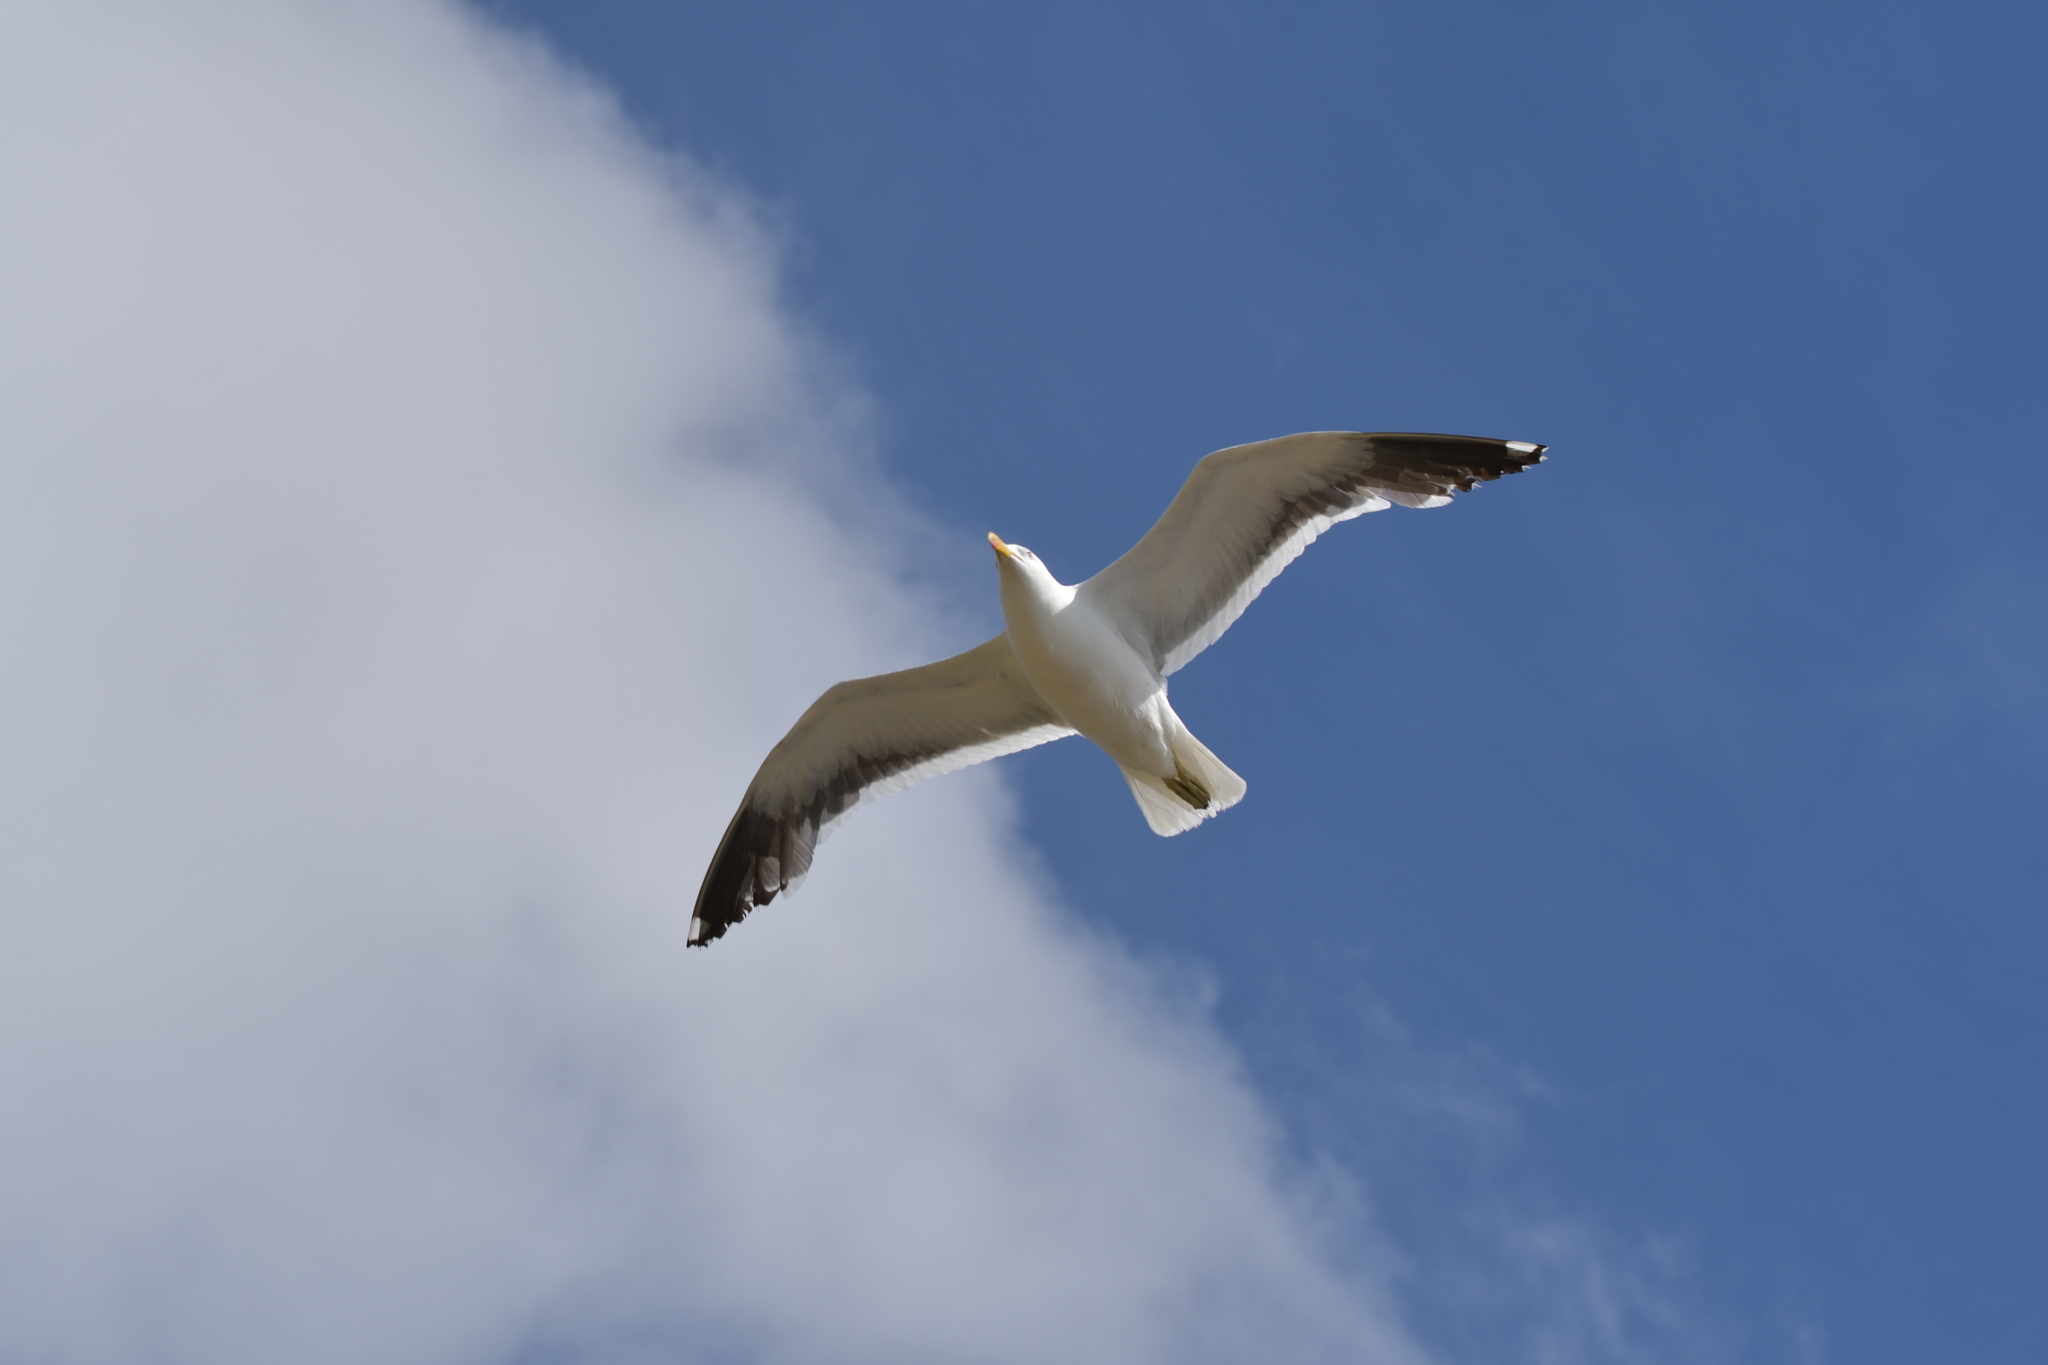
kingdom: Animalia
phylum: Chordata
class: Aves
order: Charadriiformes
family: Laridae
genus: Larus
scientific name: Larus dominicanus
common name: Kelp gull
